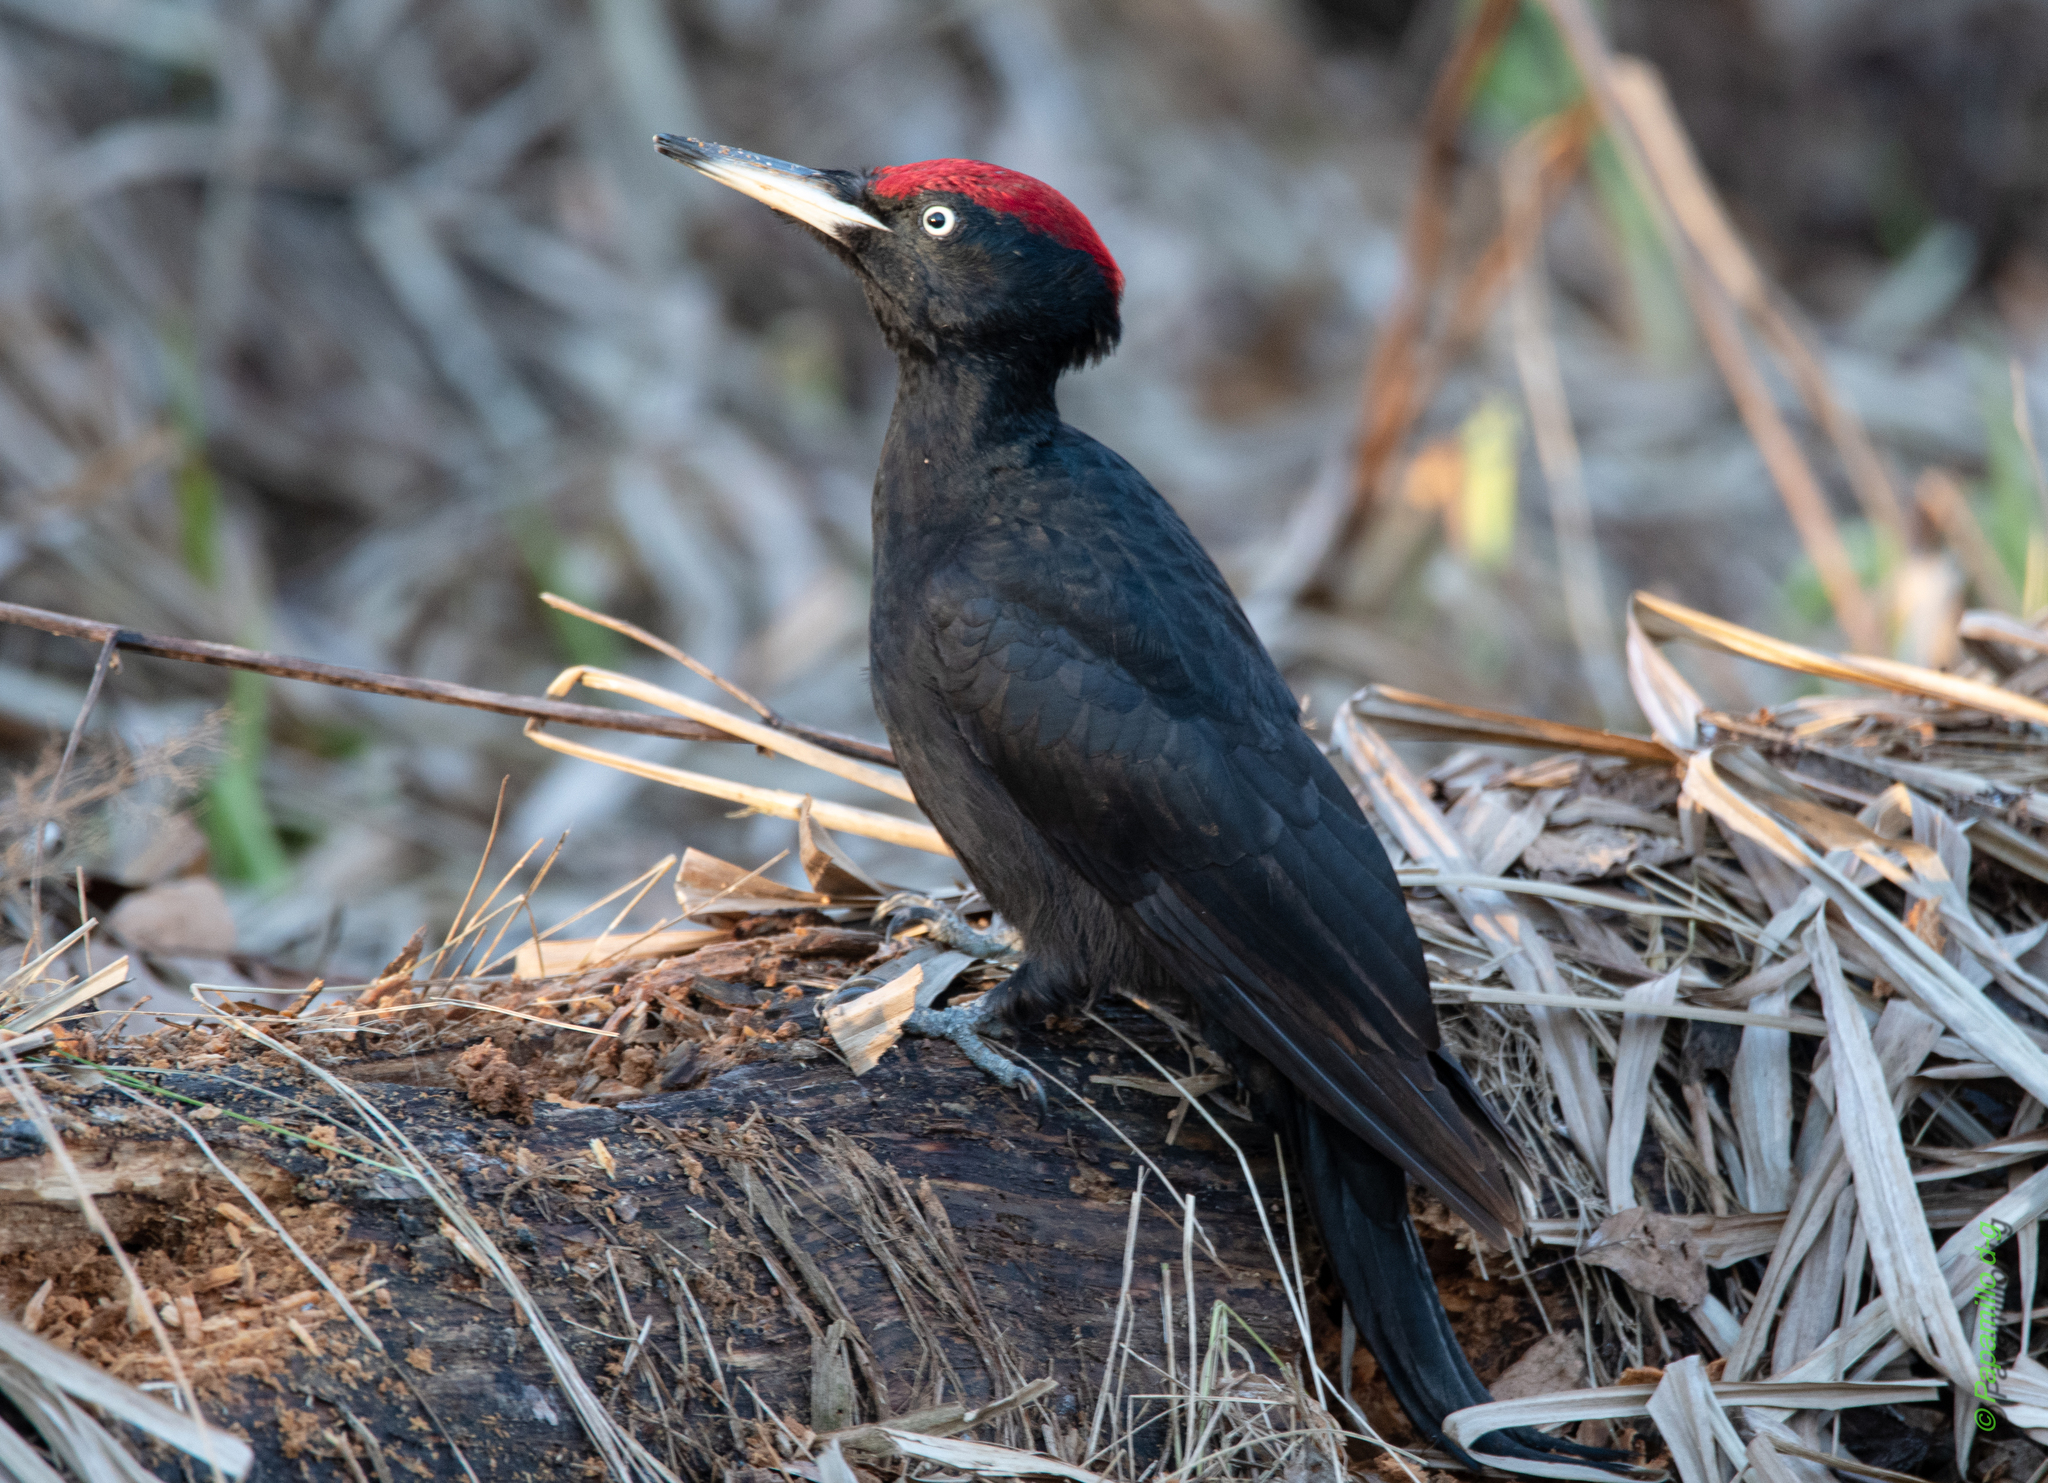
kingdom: Animalia
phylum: Chordata
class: Aves
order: Piciformes
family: Picidae
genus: Dryocopus
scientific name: Dryocopus martius
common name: Black woodpecker
